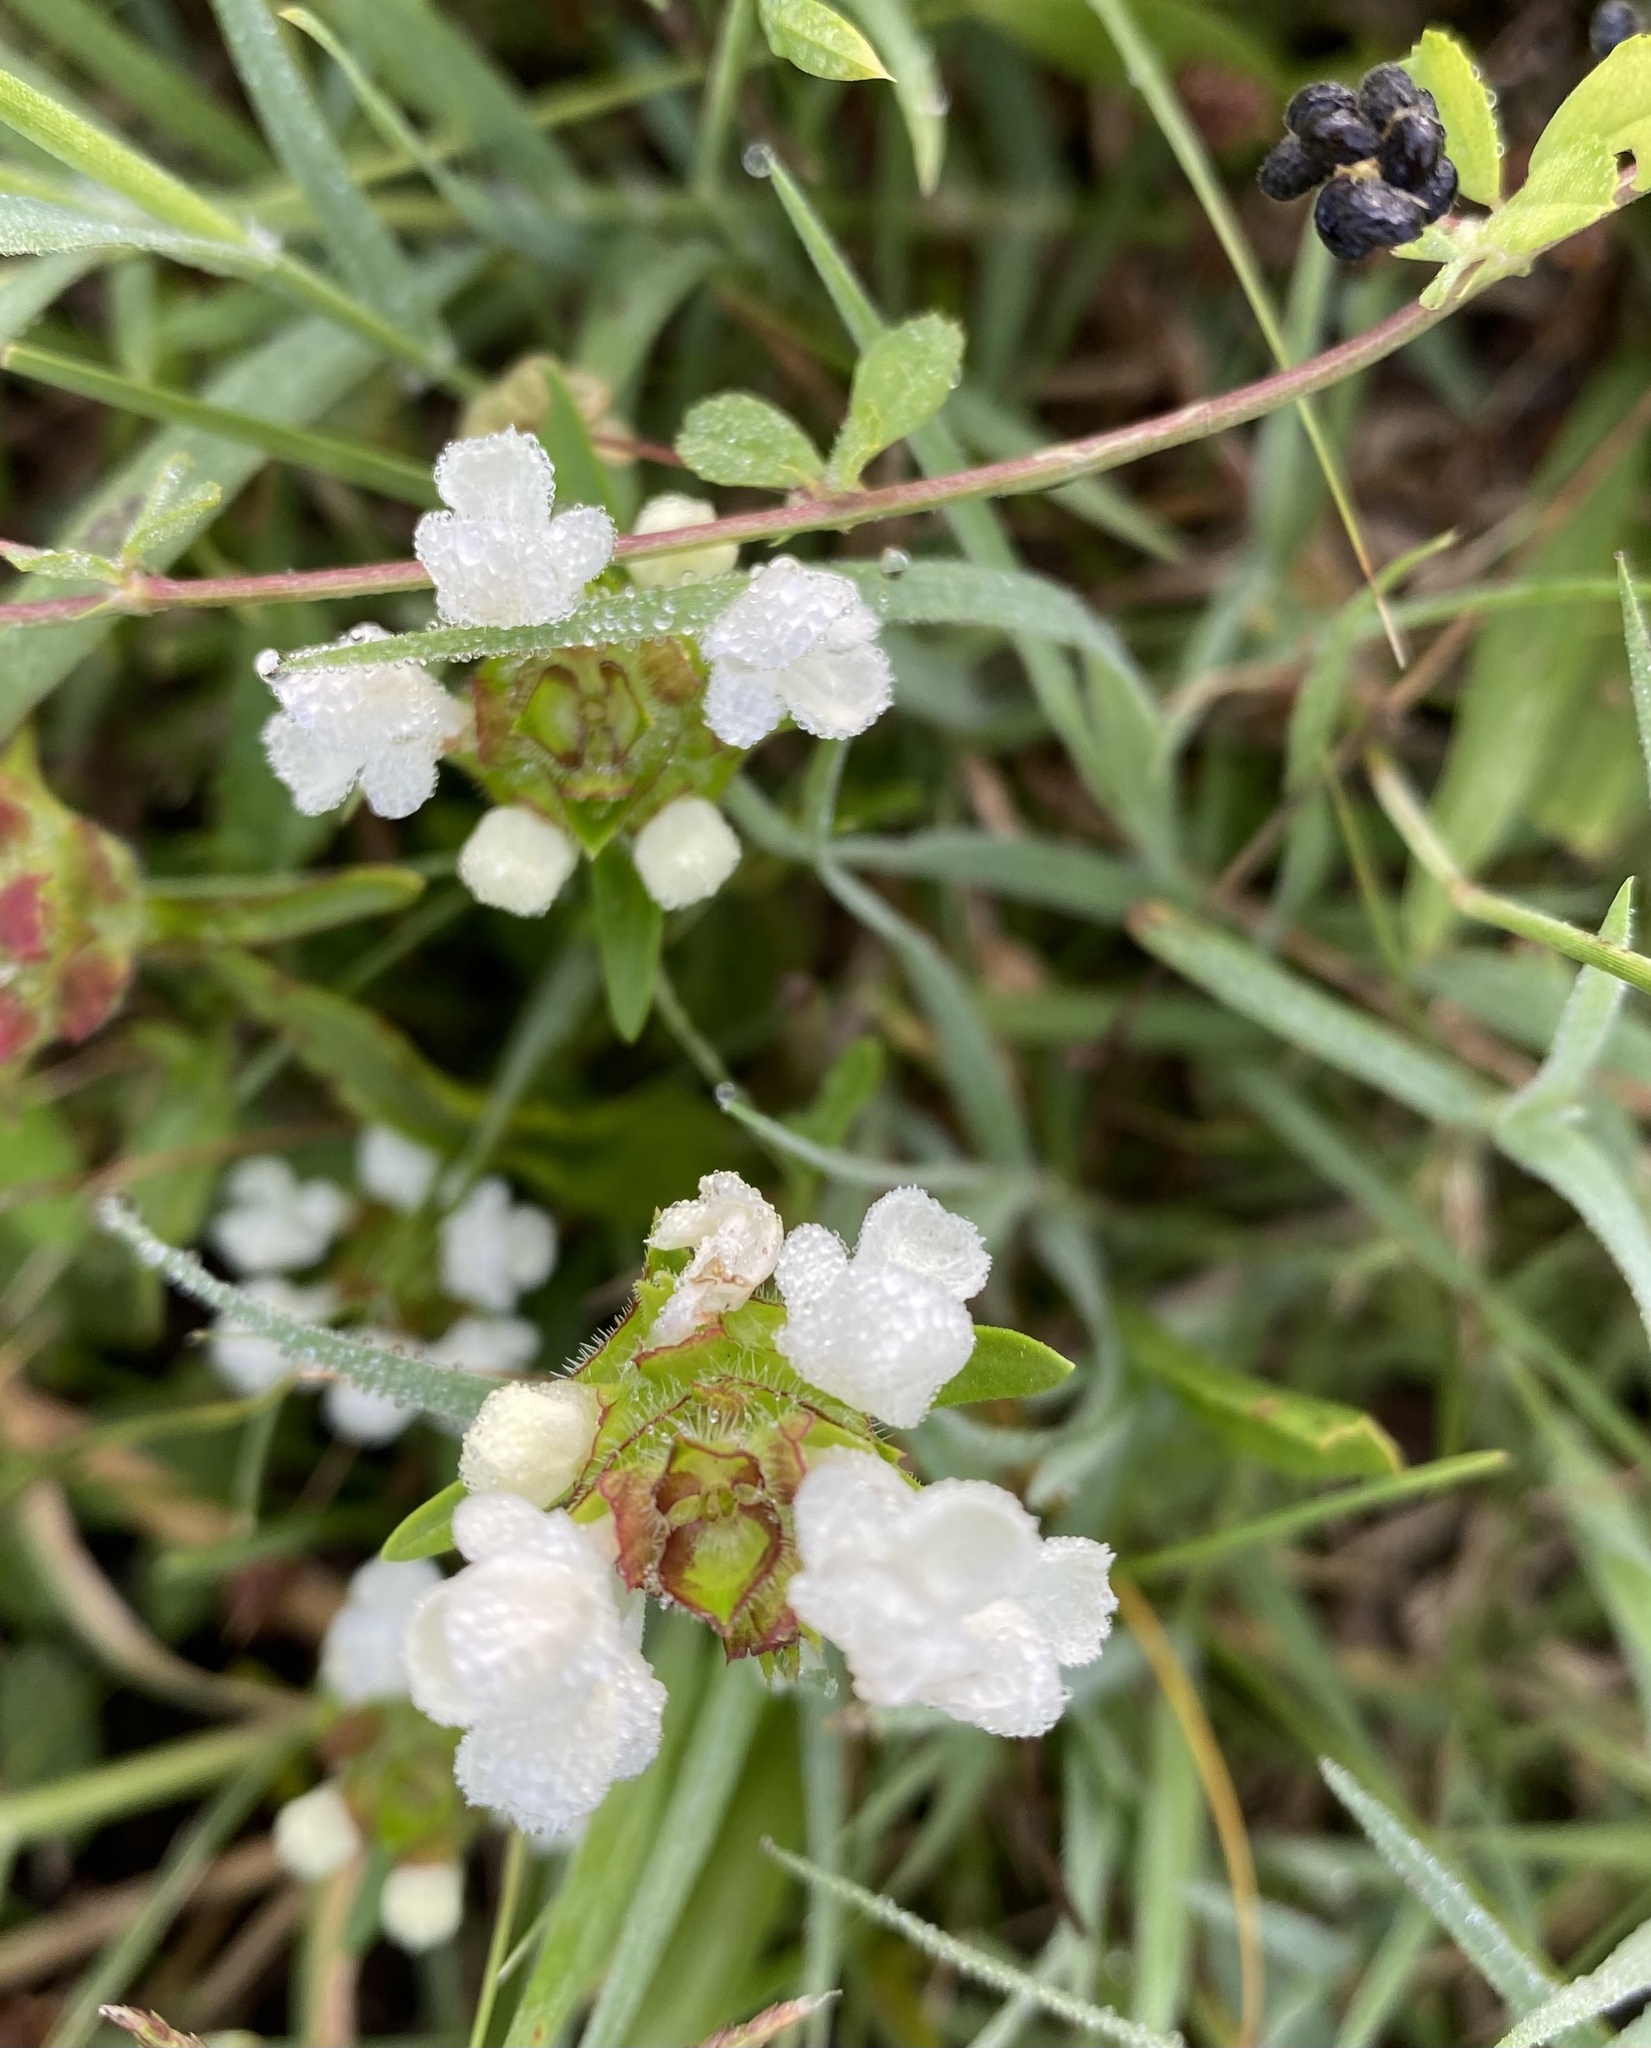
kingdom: Plantae
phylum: Tracheophyta
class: Magnoliopsida
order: Lamiales
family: Lamiaceae
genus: Prunella
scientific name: Prunella laciniata
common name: Cut-leaved selfheal
